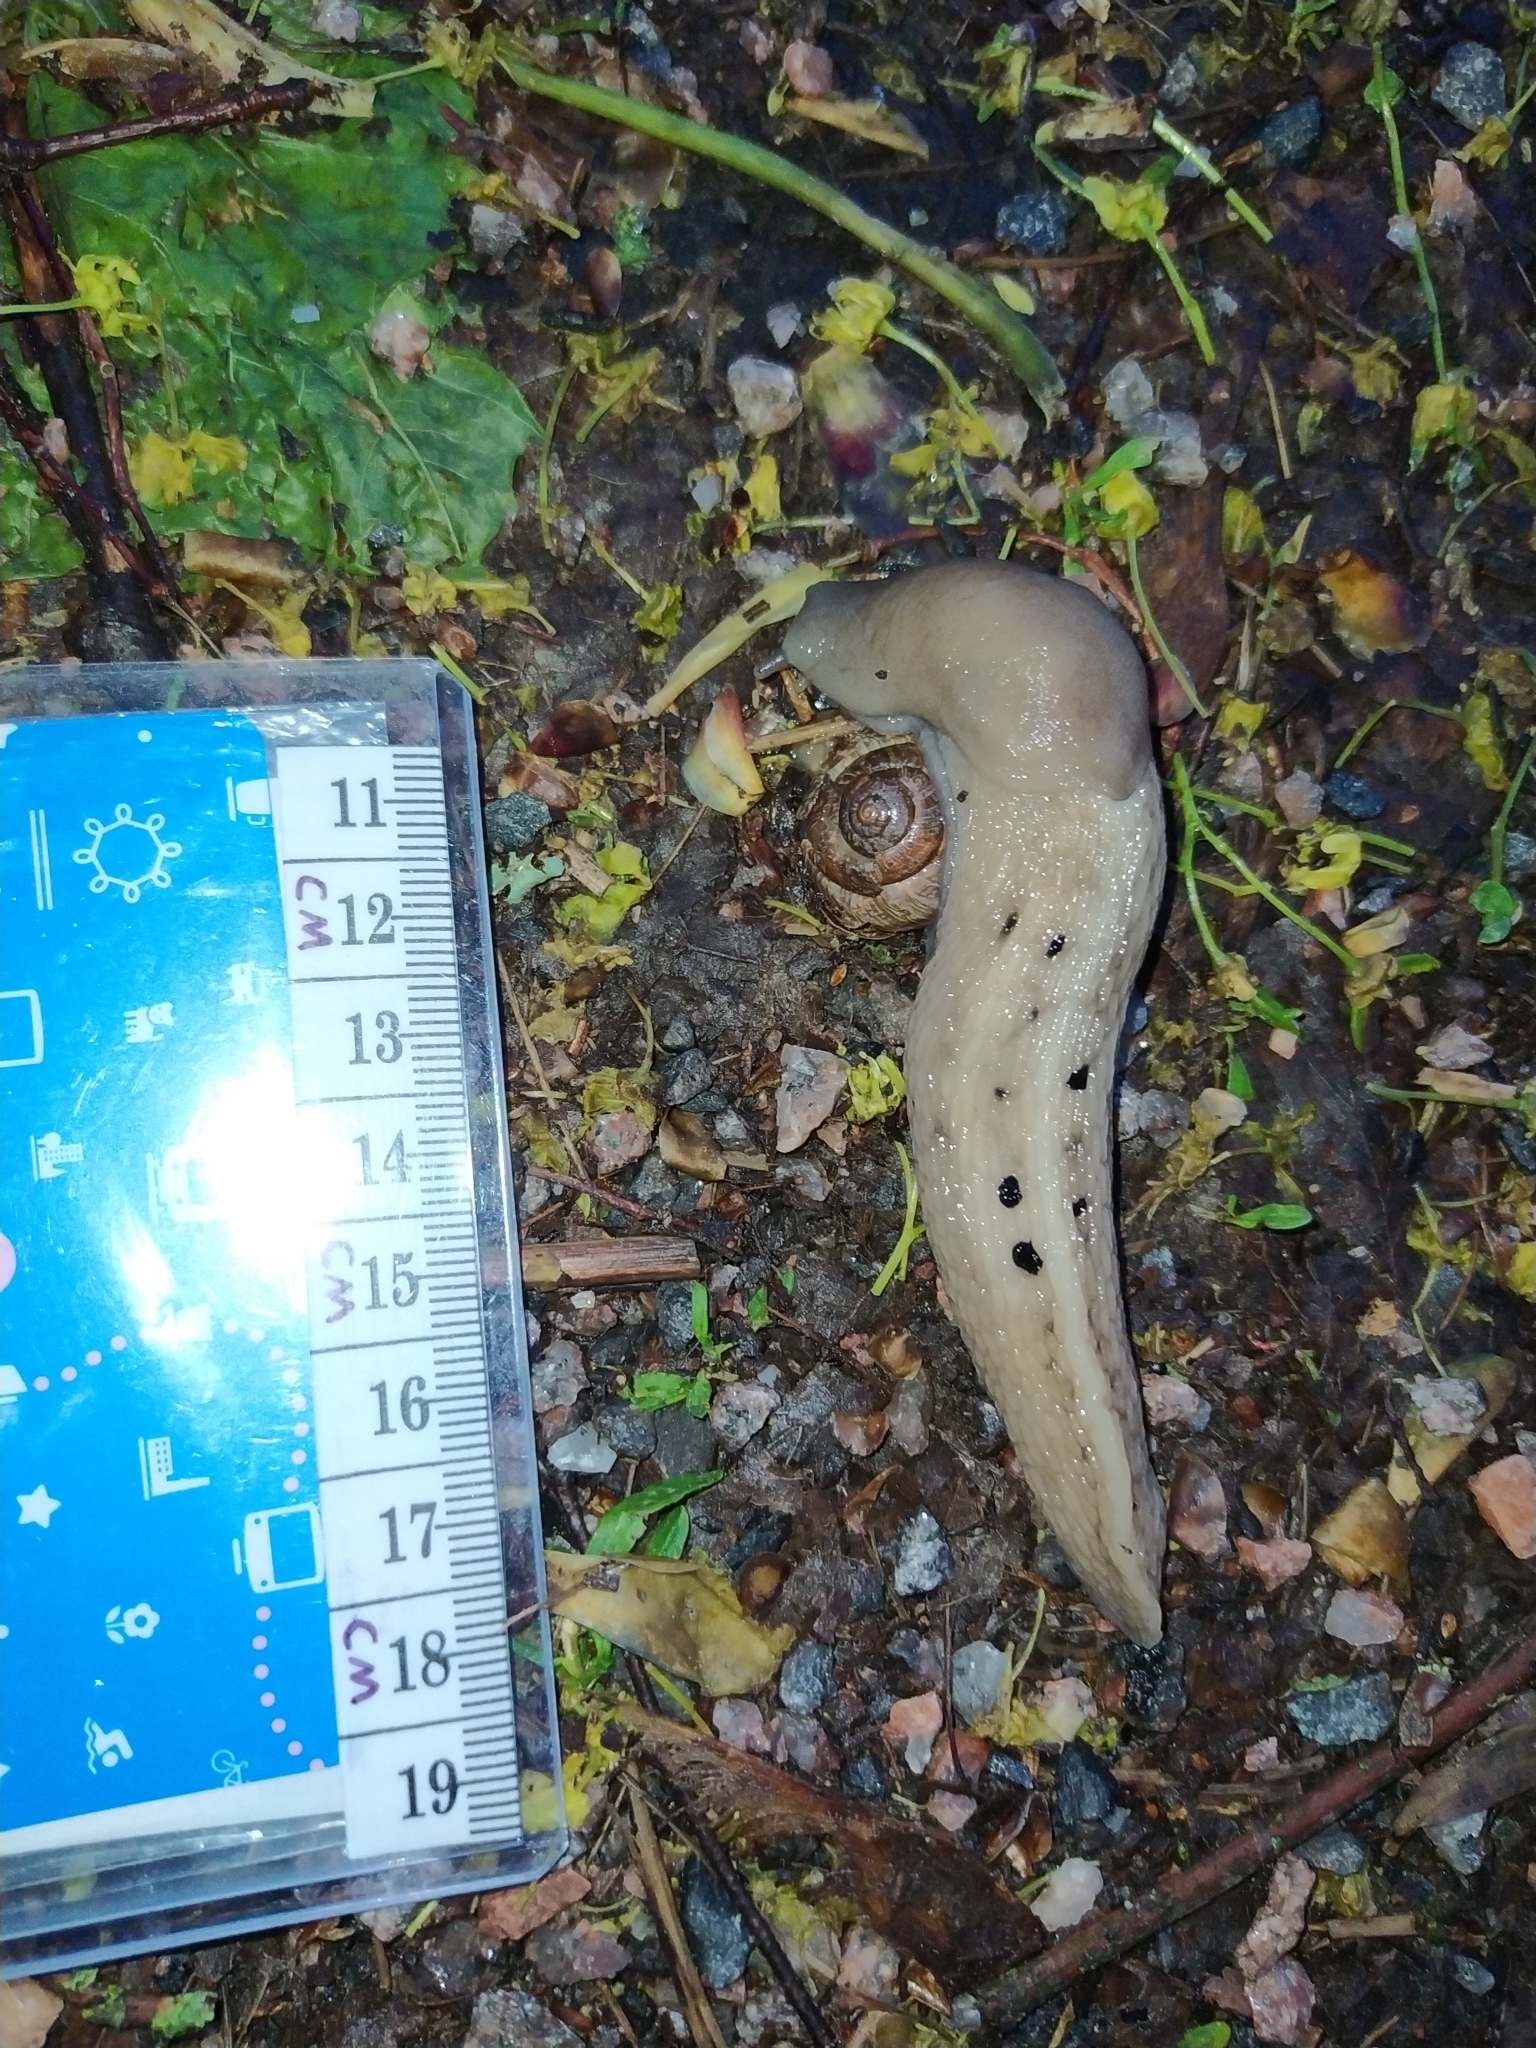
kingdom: Animalia
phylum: Mollusca
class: Gastropoda
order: Stylommatophora
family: Limacidae
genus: Limax
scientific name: Limax cinereoniger
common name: Ash-black slug
